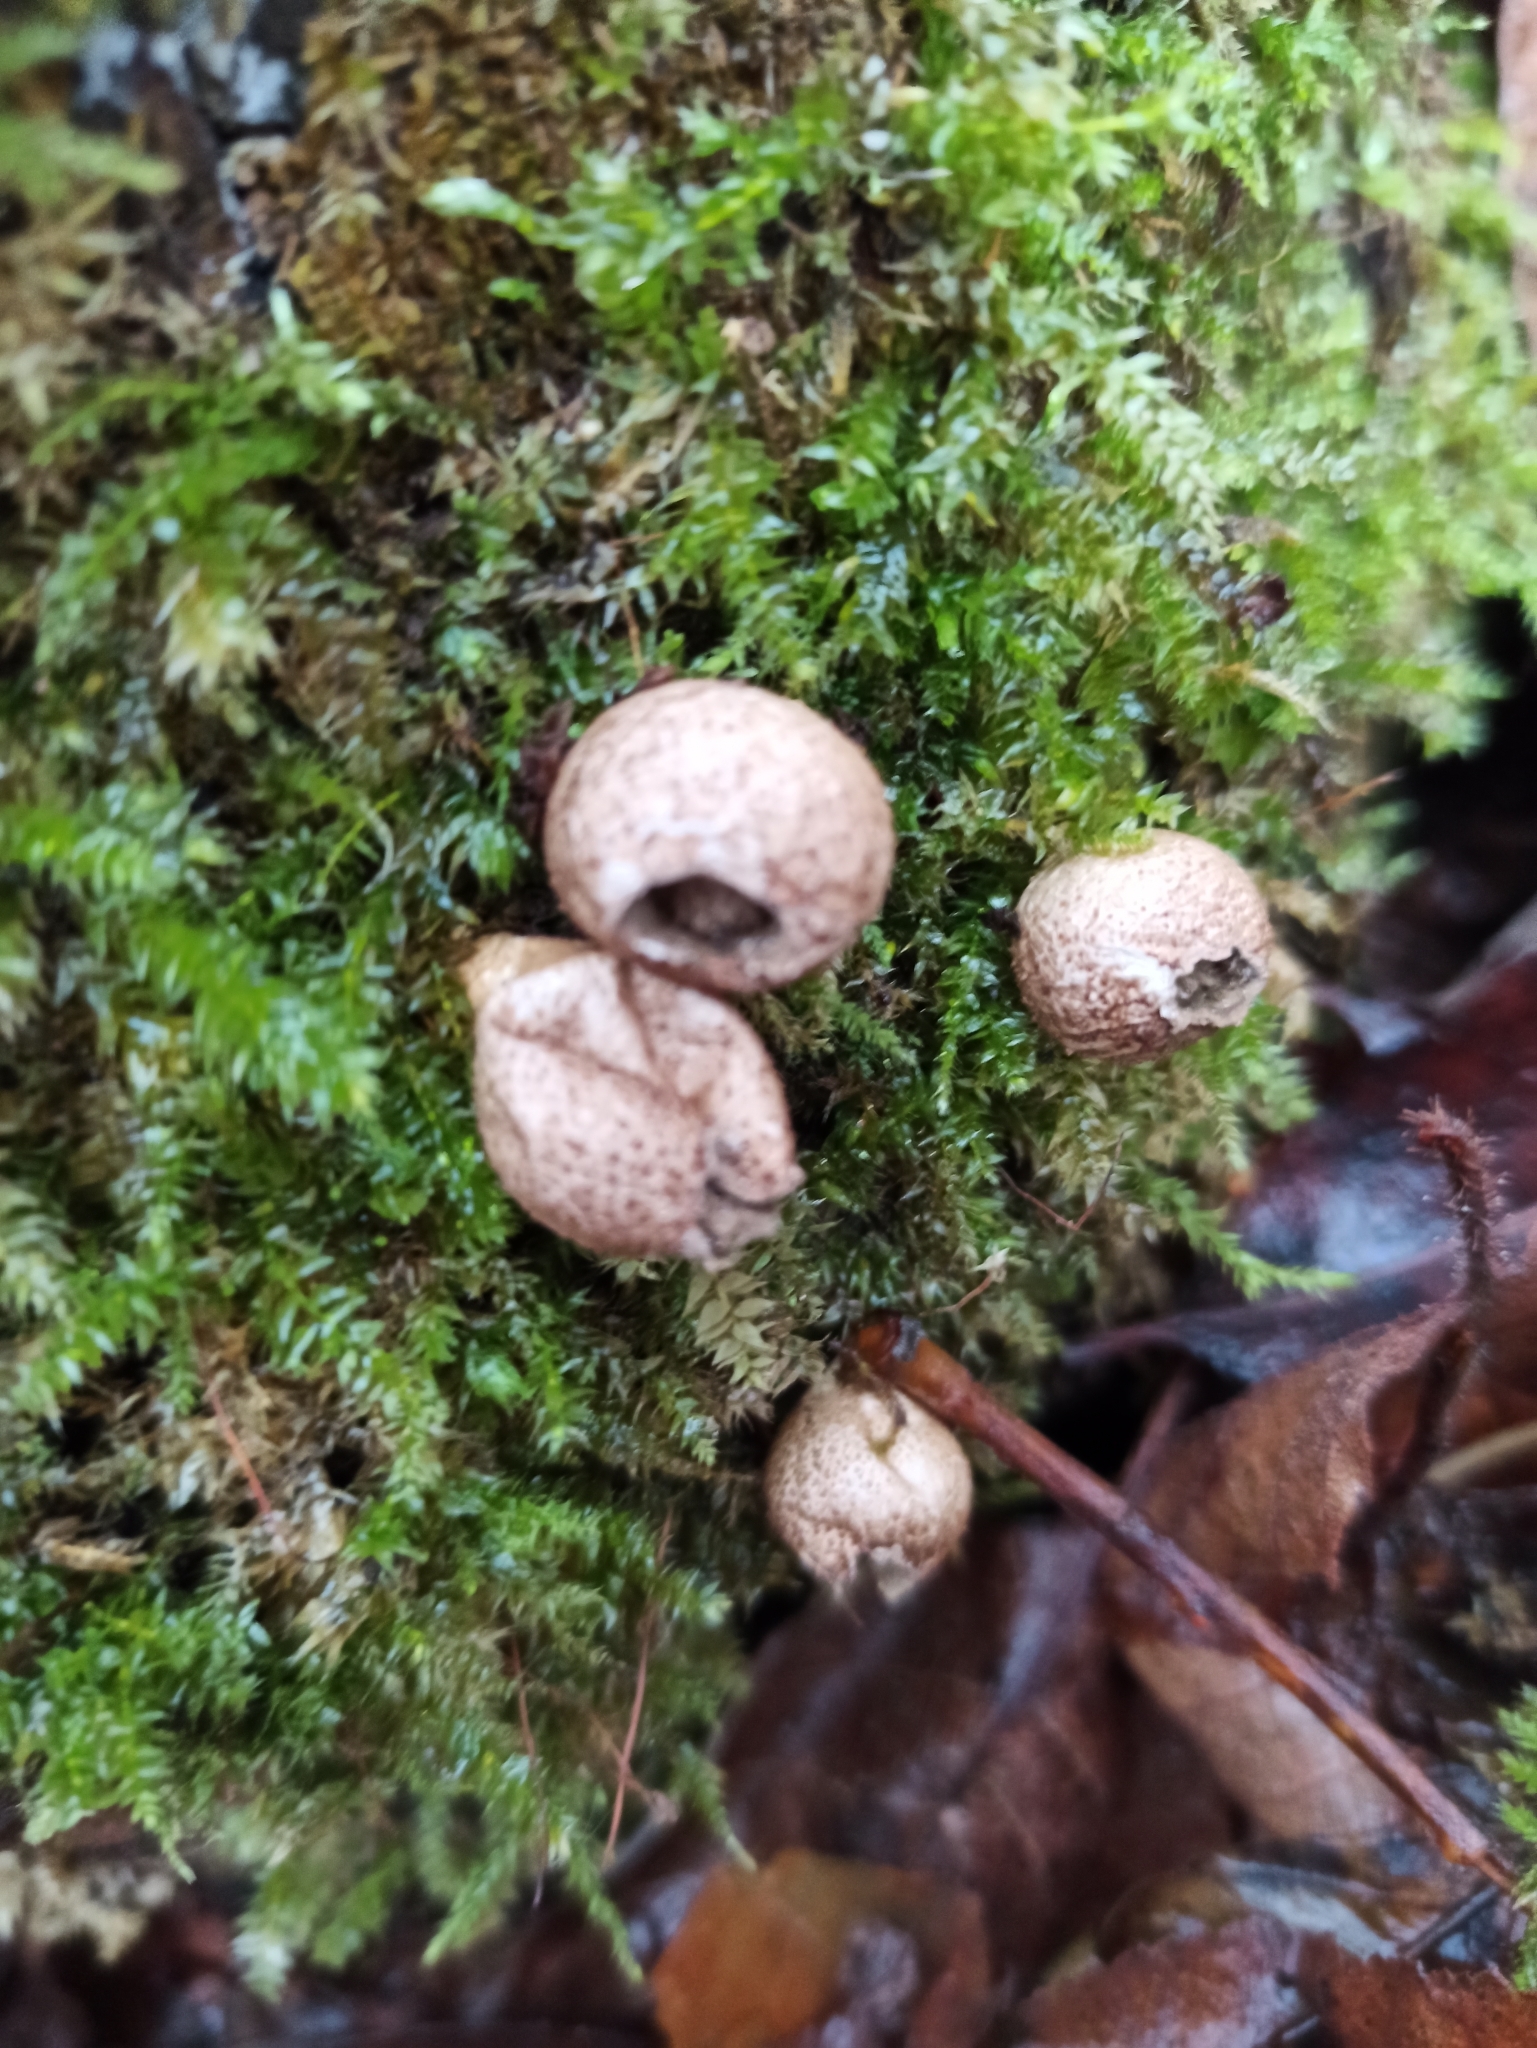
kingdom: Fungi
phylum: Basidiomycota
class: Agaricomycetes
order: Agaricales
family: Lycoperdaceae
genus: Apioperdon
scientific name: Apioperdon pyriforme
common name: Pear-shaped puffball
